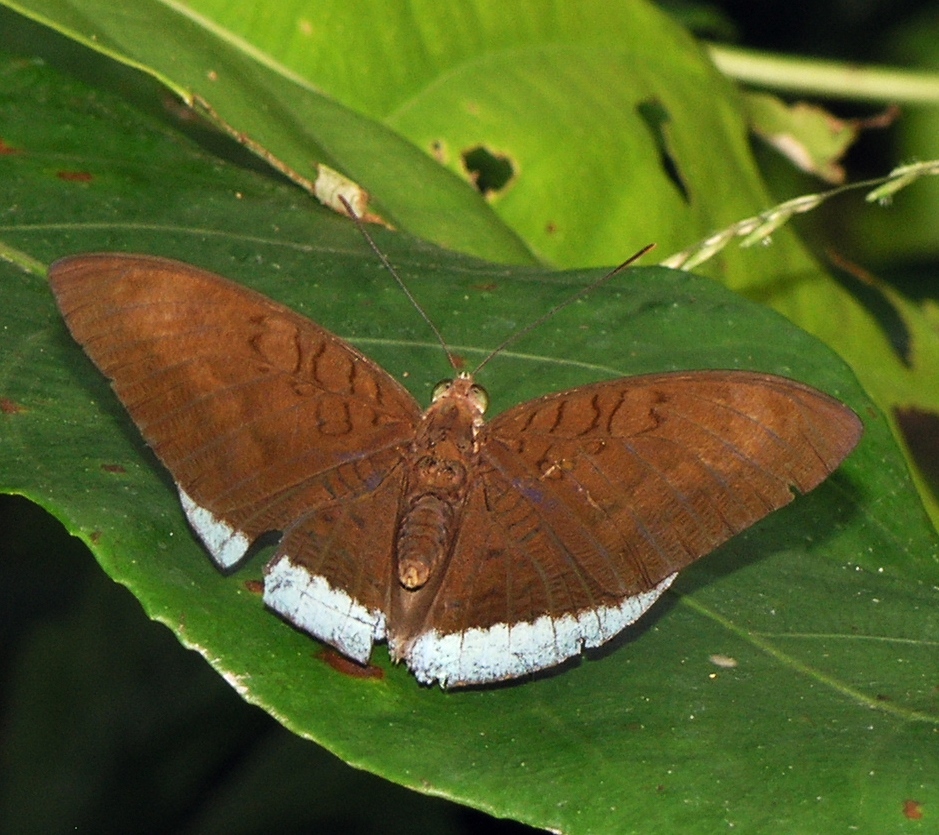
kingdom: Animalia
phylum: Arthropoda
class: Insecta
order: Lepidoptera
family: Nymphalidae
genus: Tanaecia
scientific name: Tanaecia julii
